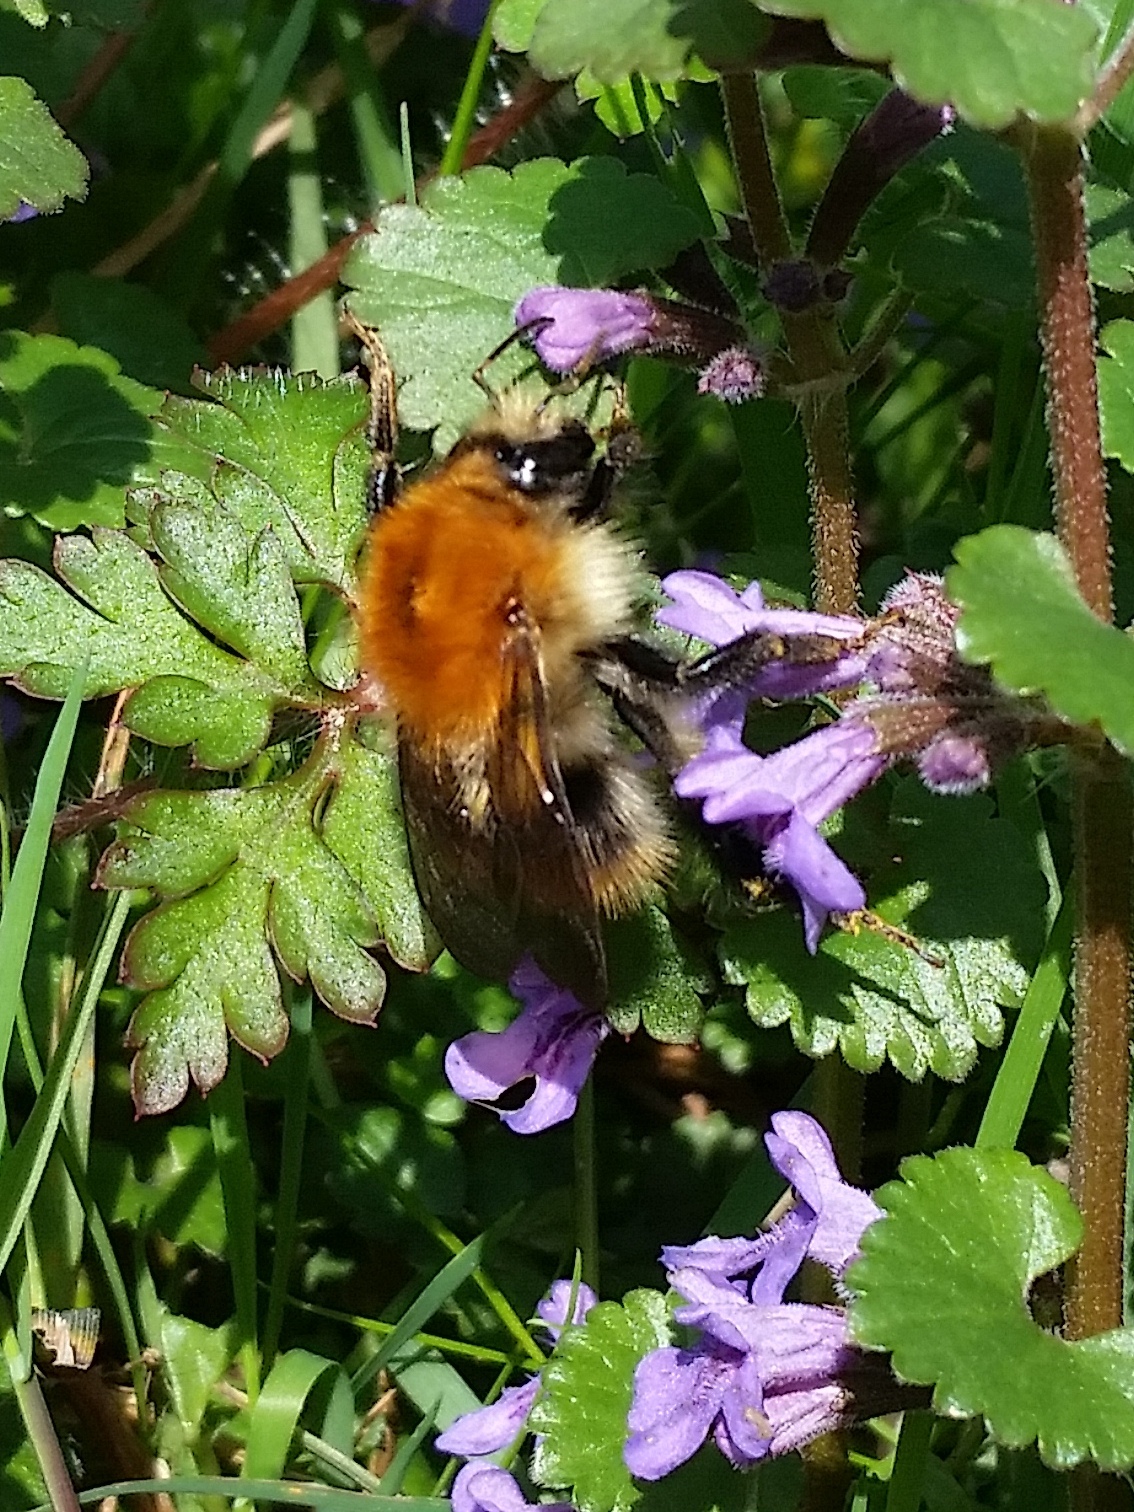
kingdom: Animalia
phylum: Arthropoda
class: Insecta
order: Hymenoptera
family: Apidae
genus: Bombus
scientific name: Bombus pascuorum
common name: Common carder bee
